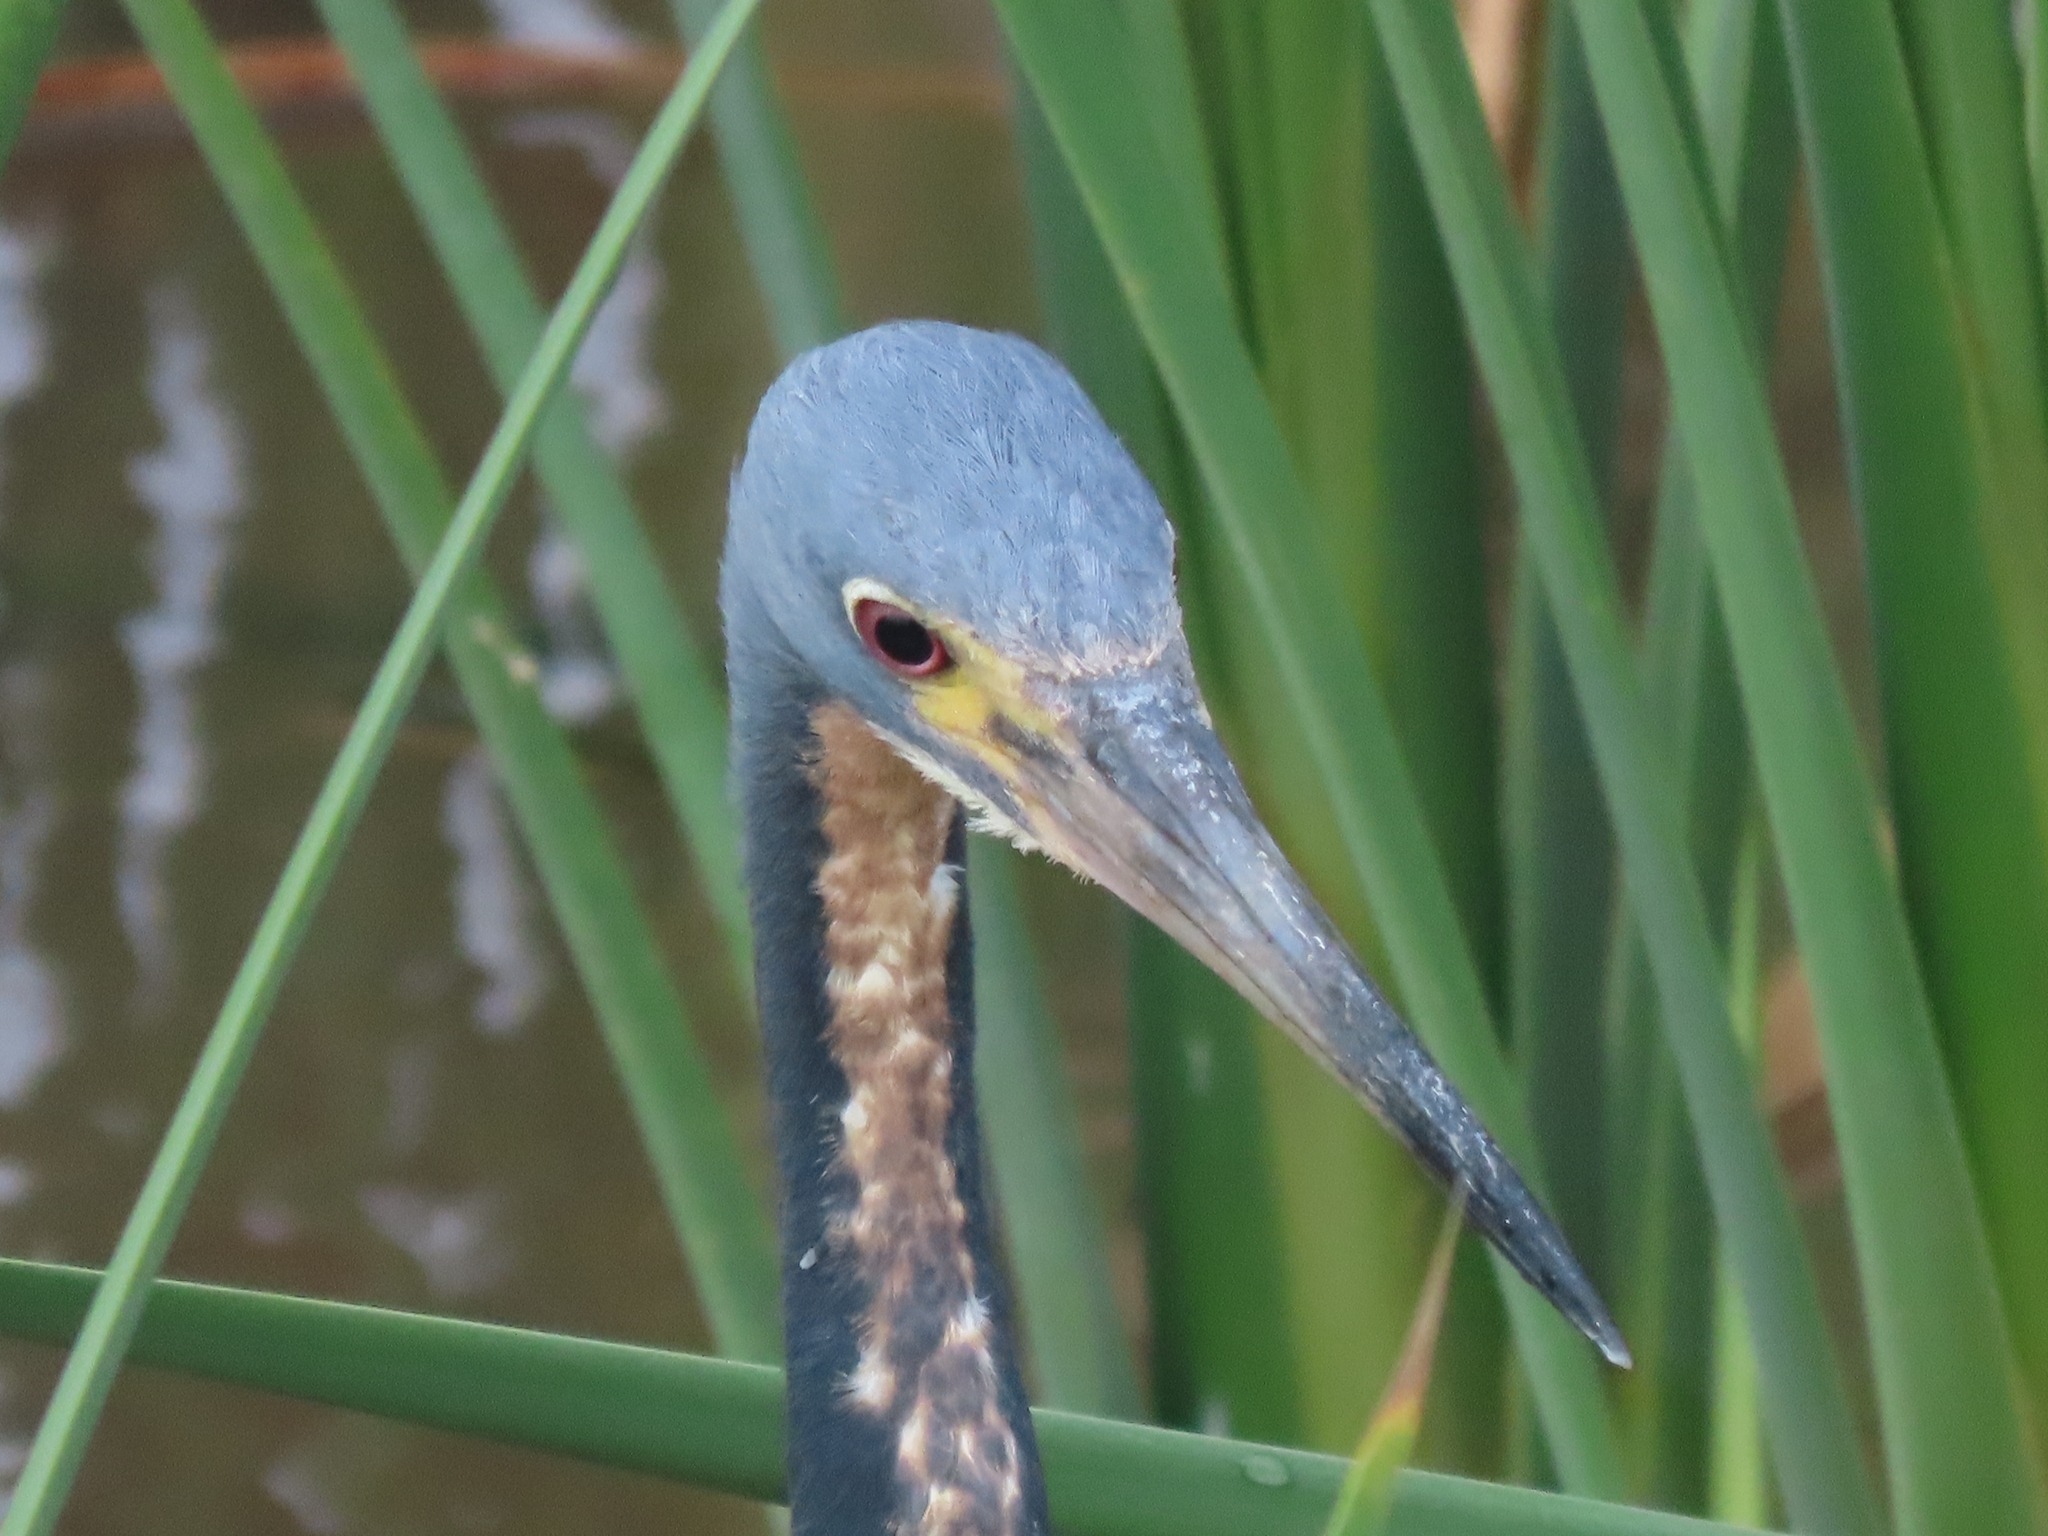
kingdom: Animalia
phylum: Chordata
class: Aves
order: Pelecaniformes
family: Ardeidae
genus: Egretta
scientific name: Egretta tricolor
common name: Tricolored heron
